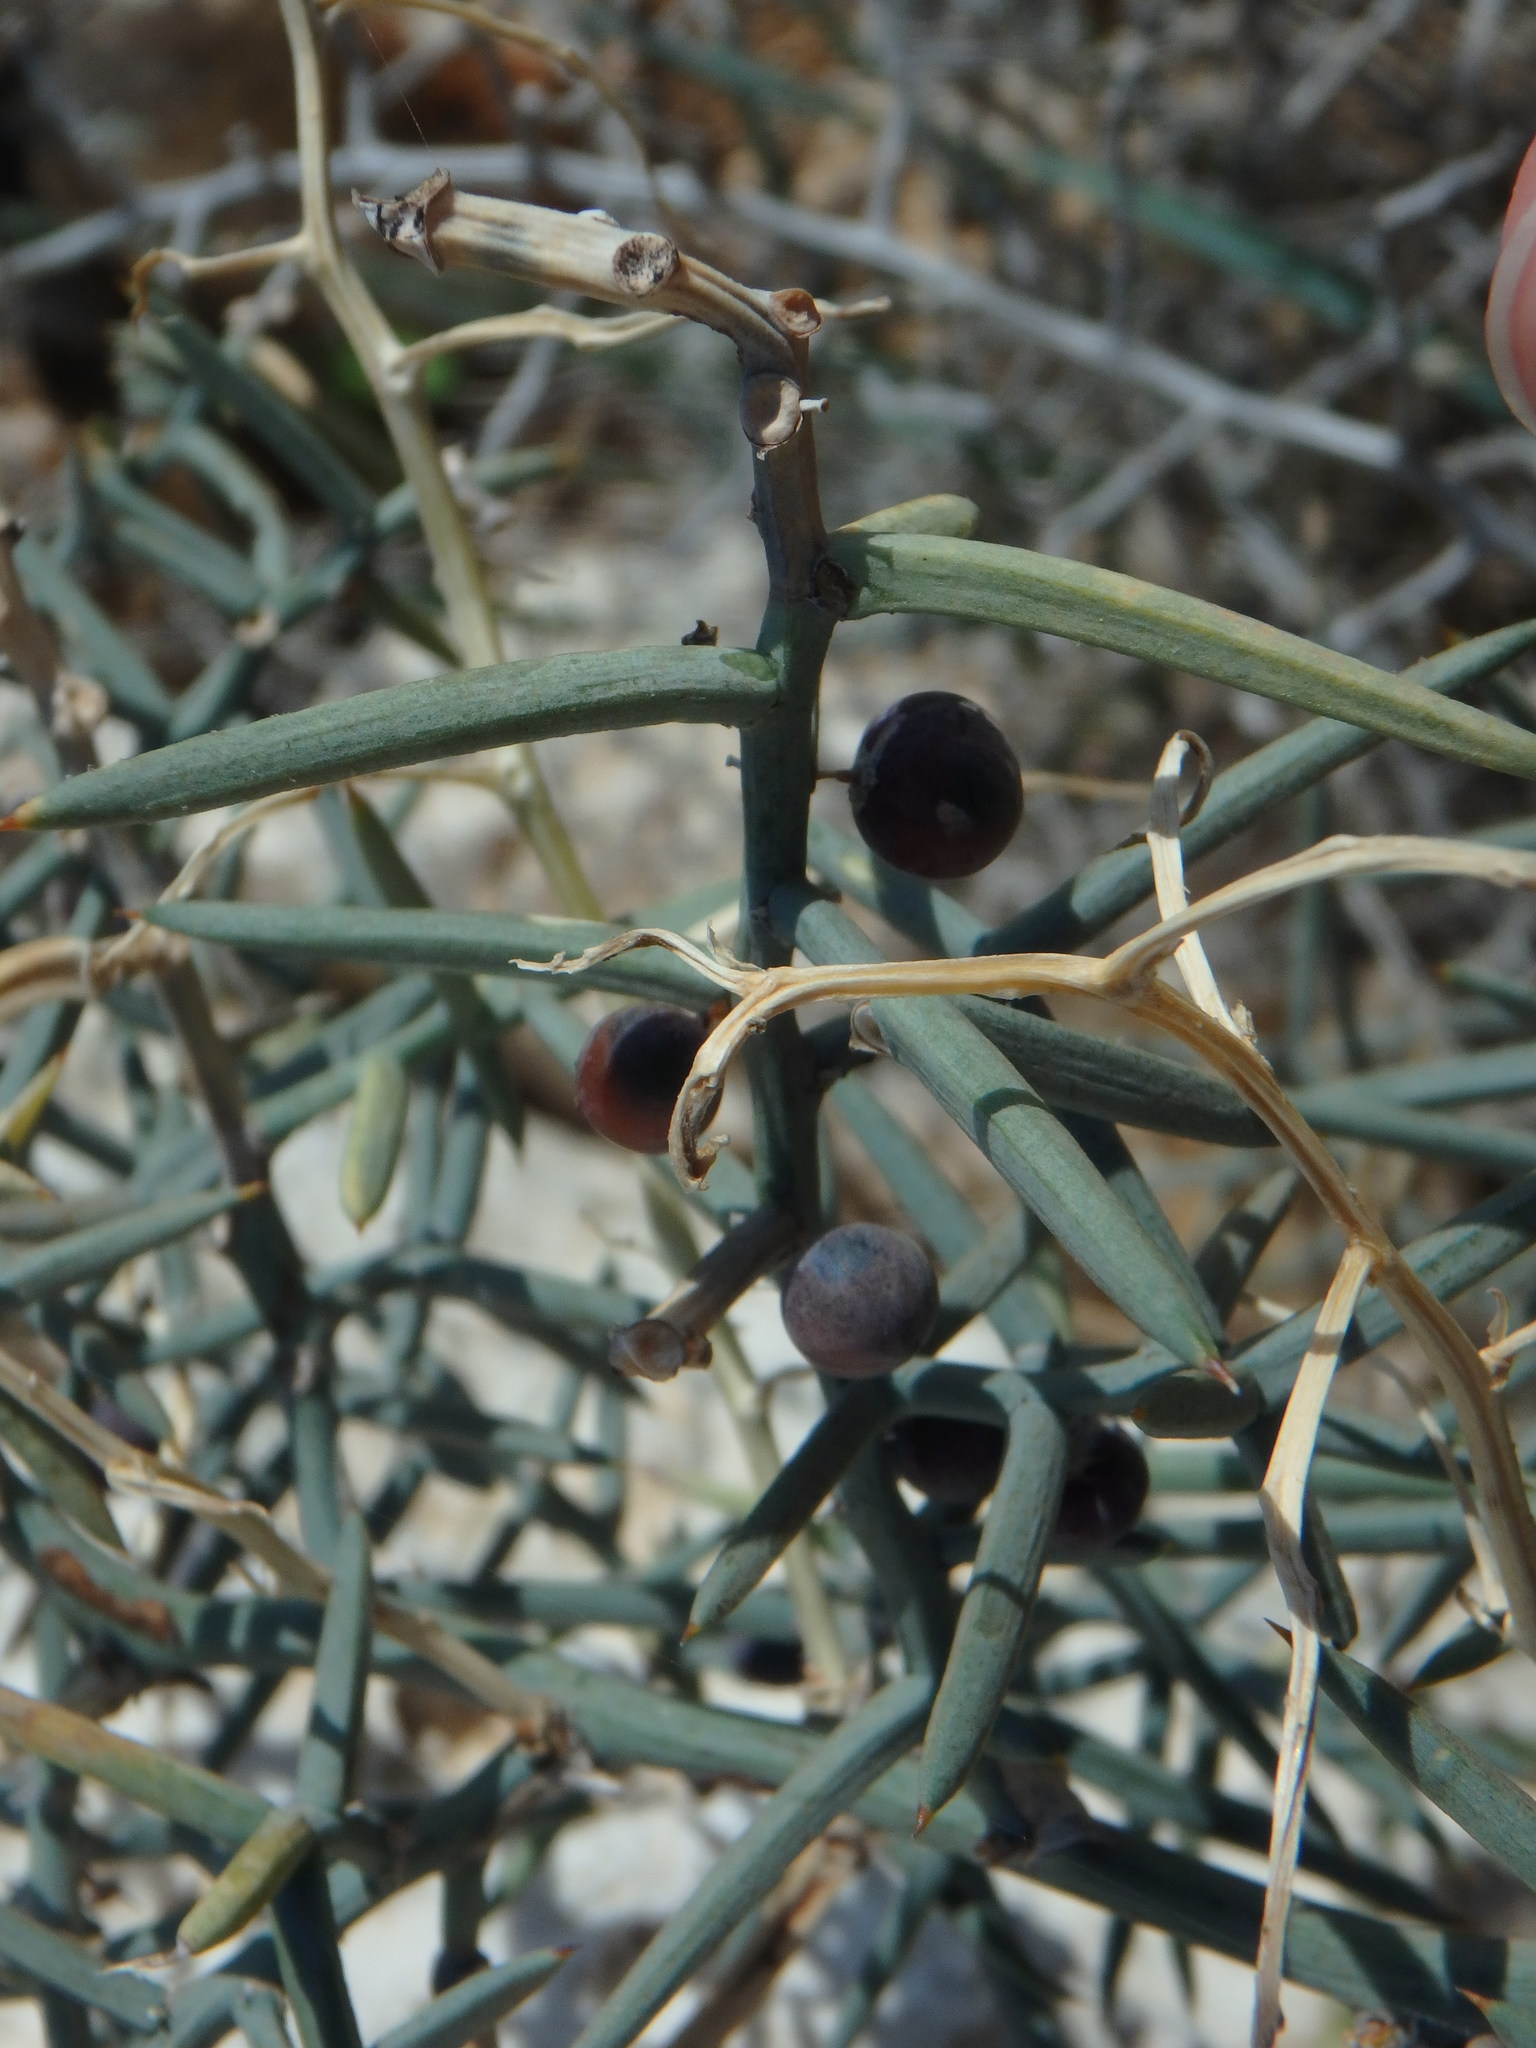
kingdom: Plantae
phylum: Tracheophyta
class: Liliopsida
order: Asparagales
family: Asparagaceae
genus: Asparagus
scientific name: Asparagus horridus
